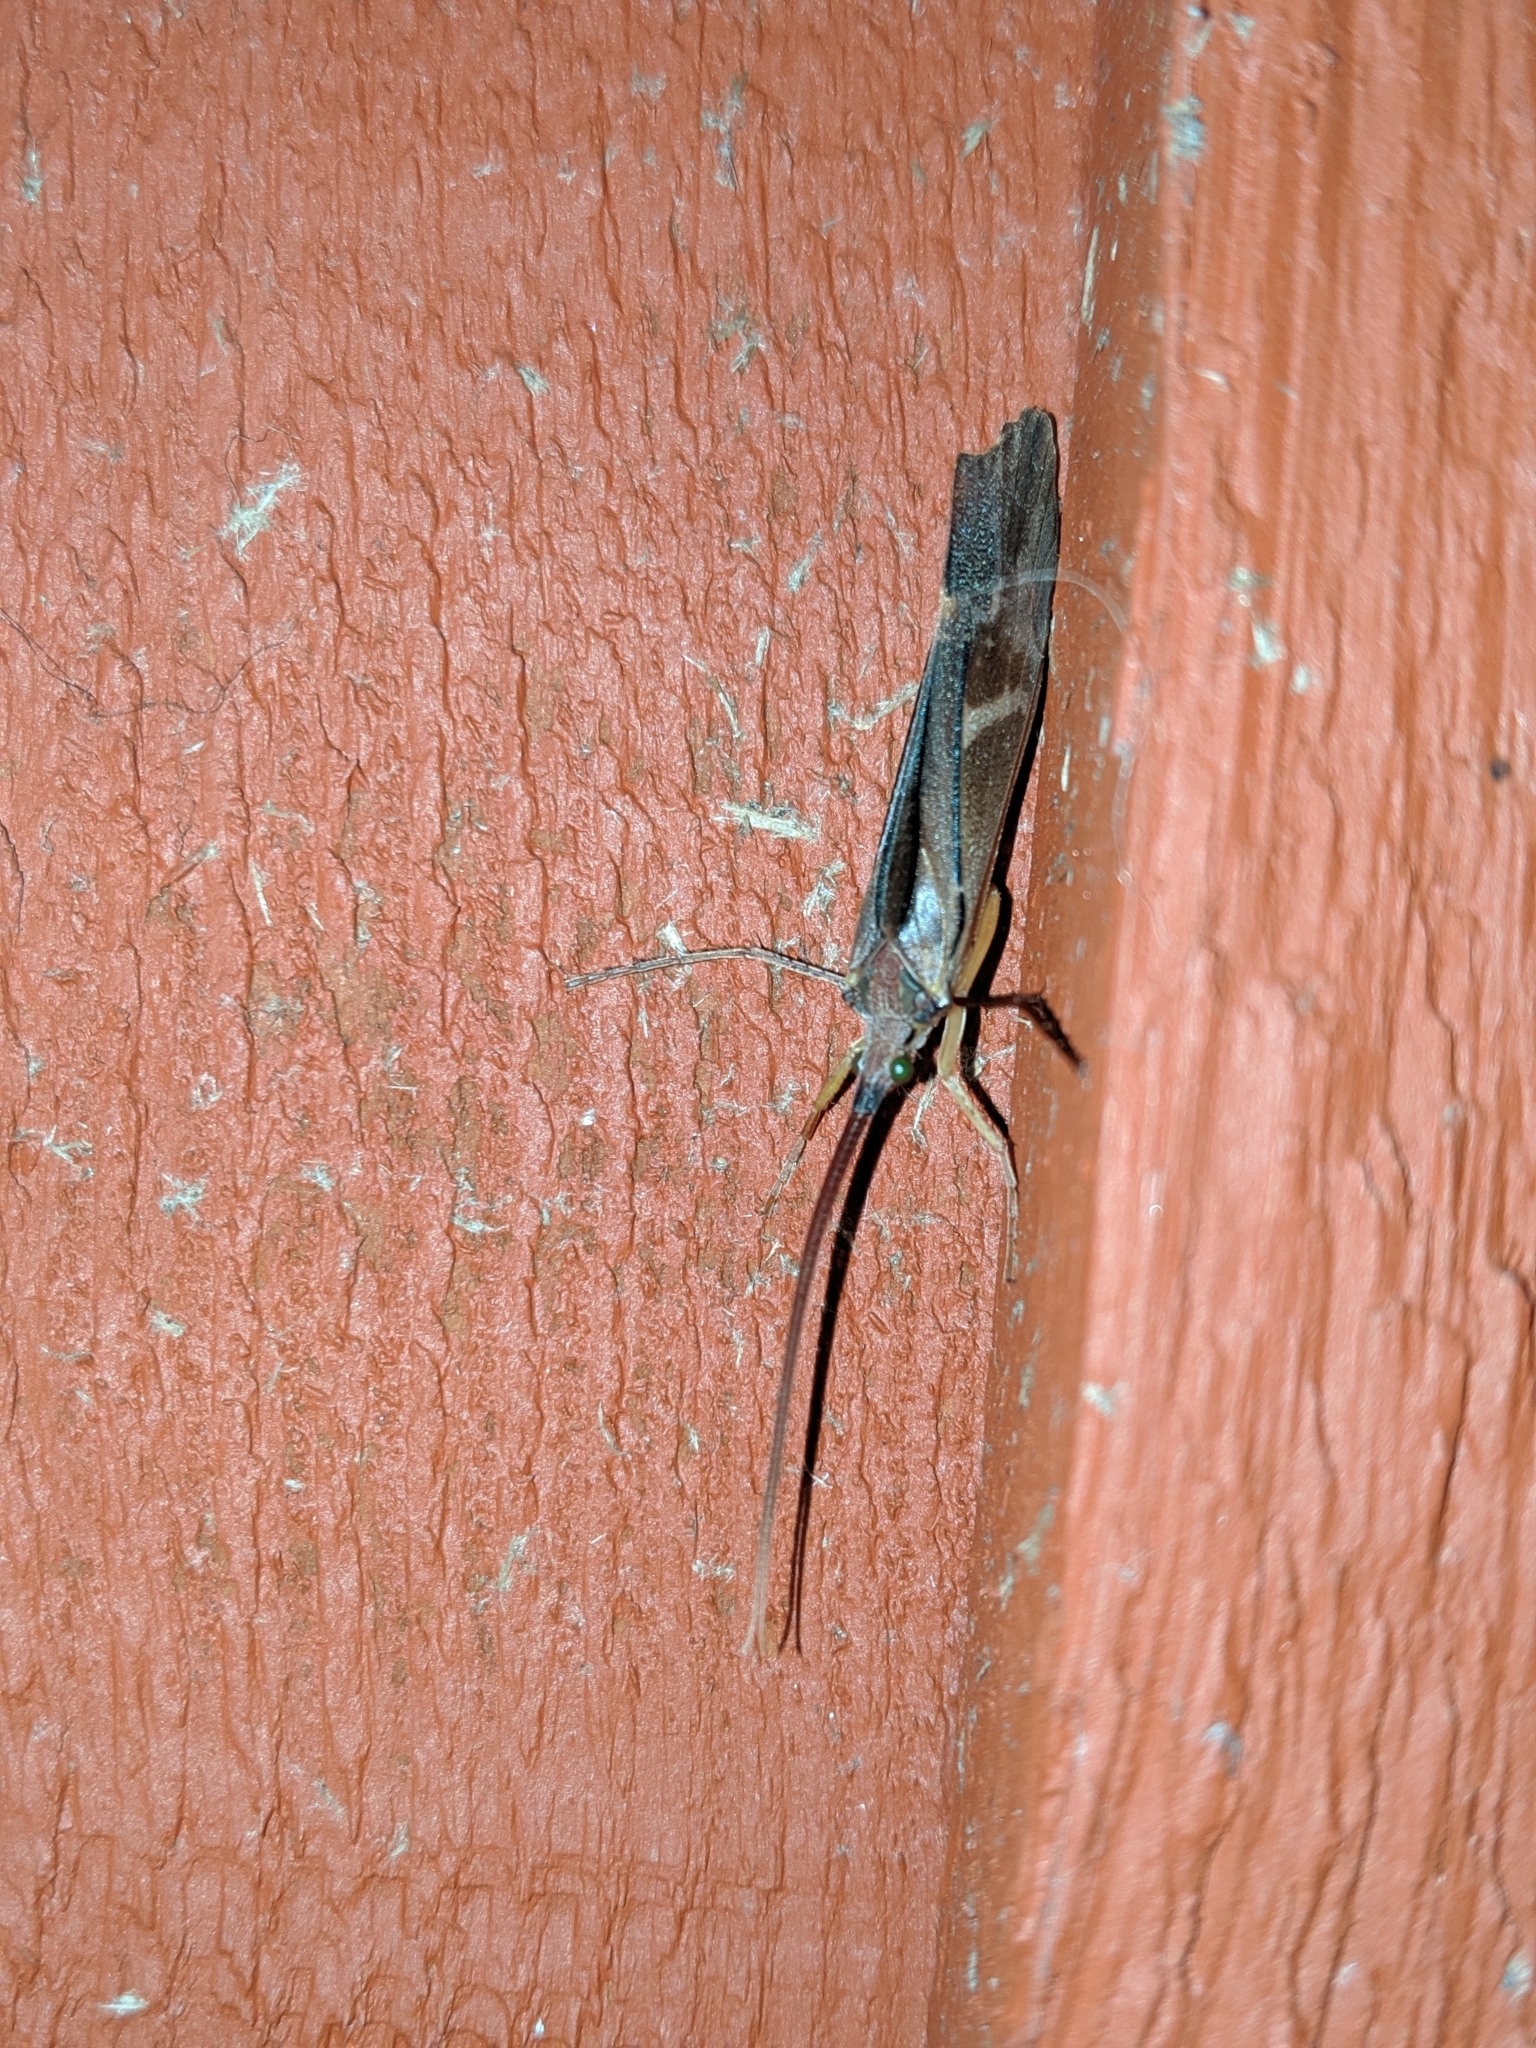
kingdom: Animalia
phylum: Arthropoda
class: Insecta
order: Trichoptera
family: Limnephilidae
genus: Nemotaulius
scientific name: Nemotaulius hostilis
